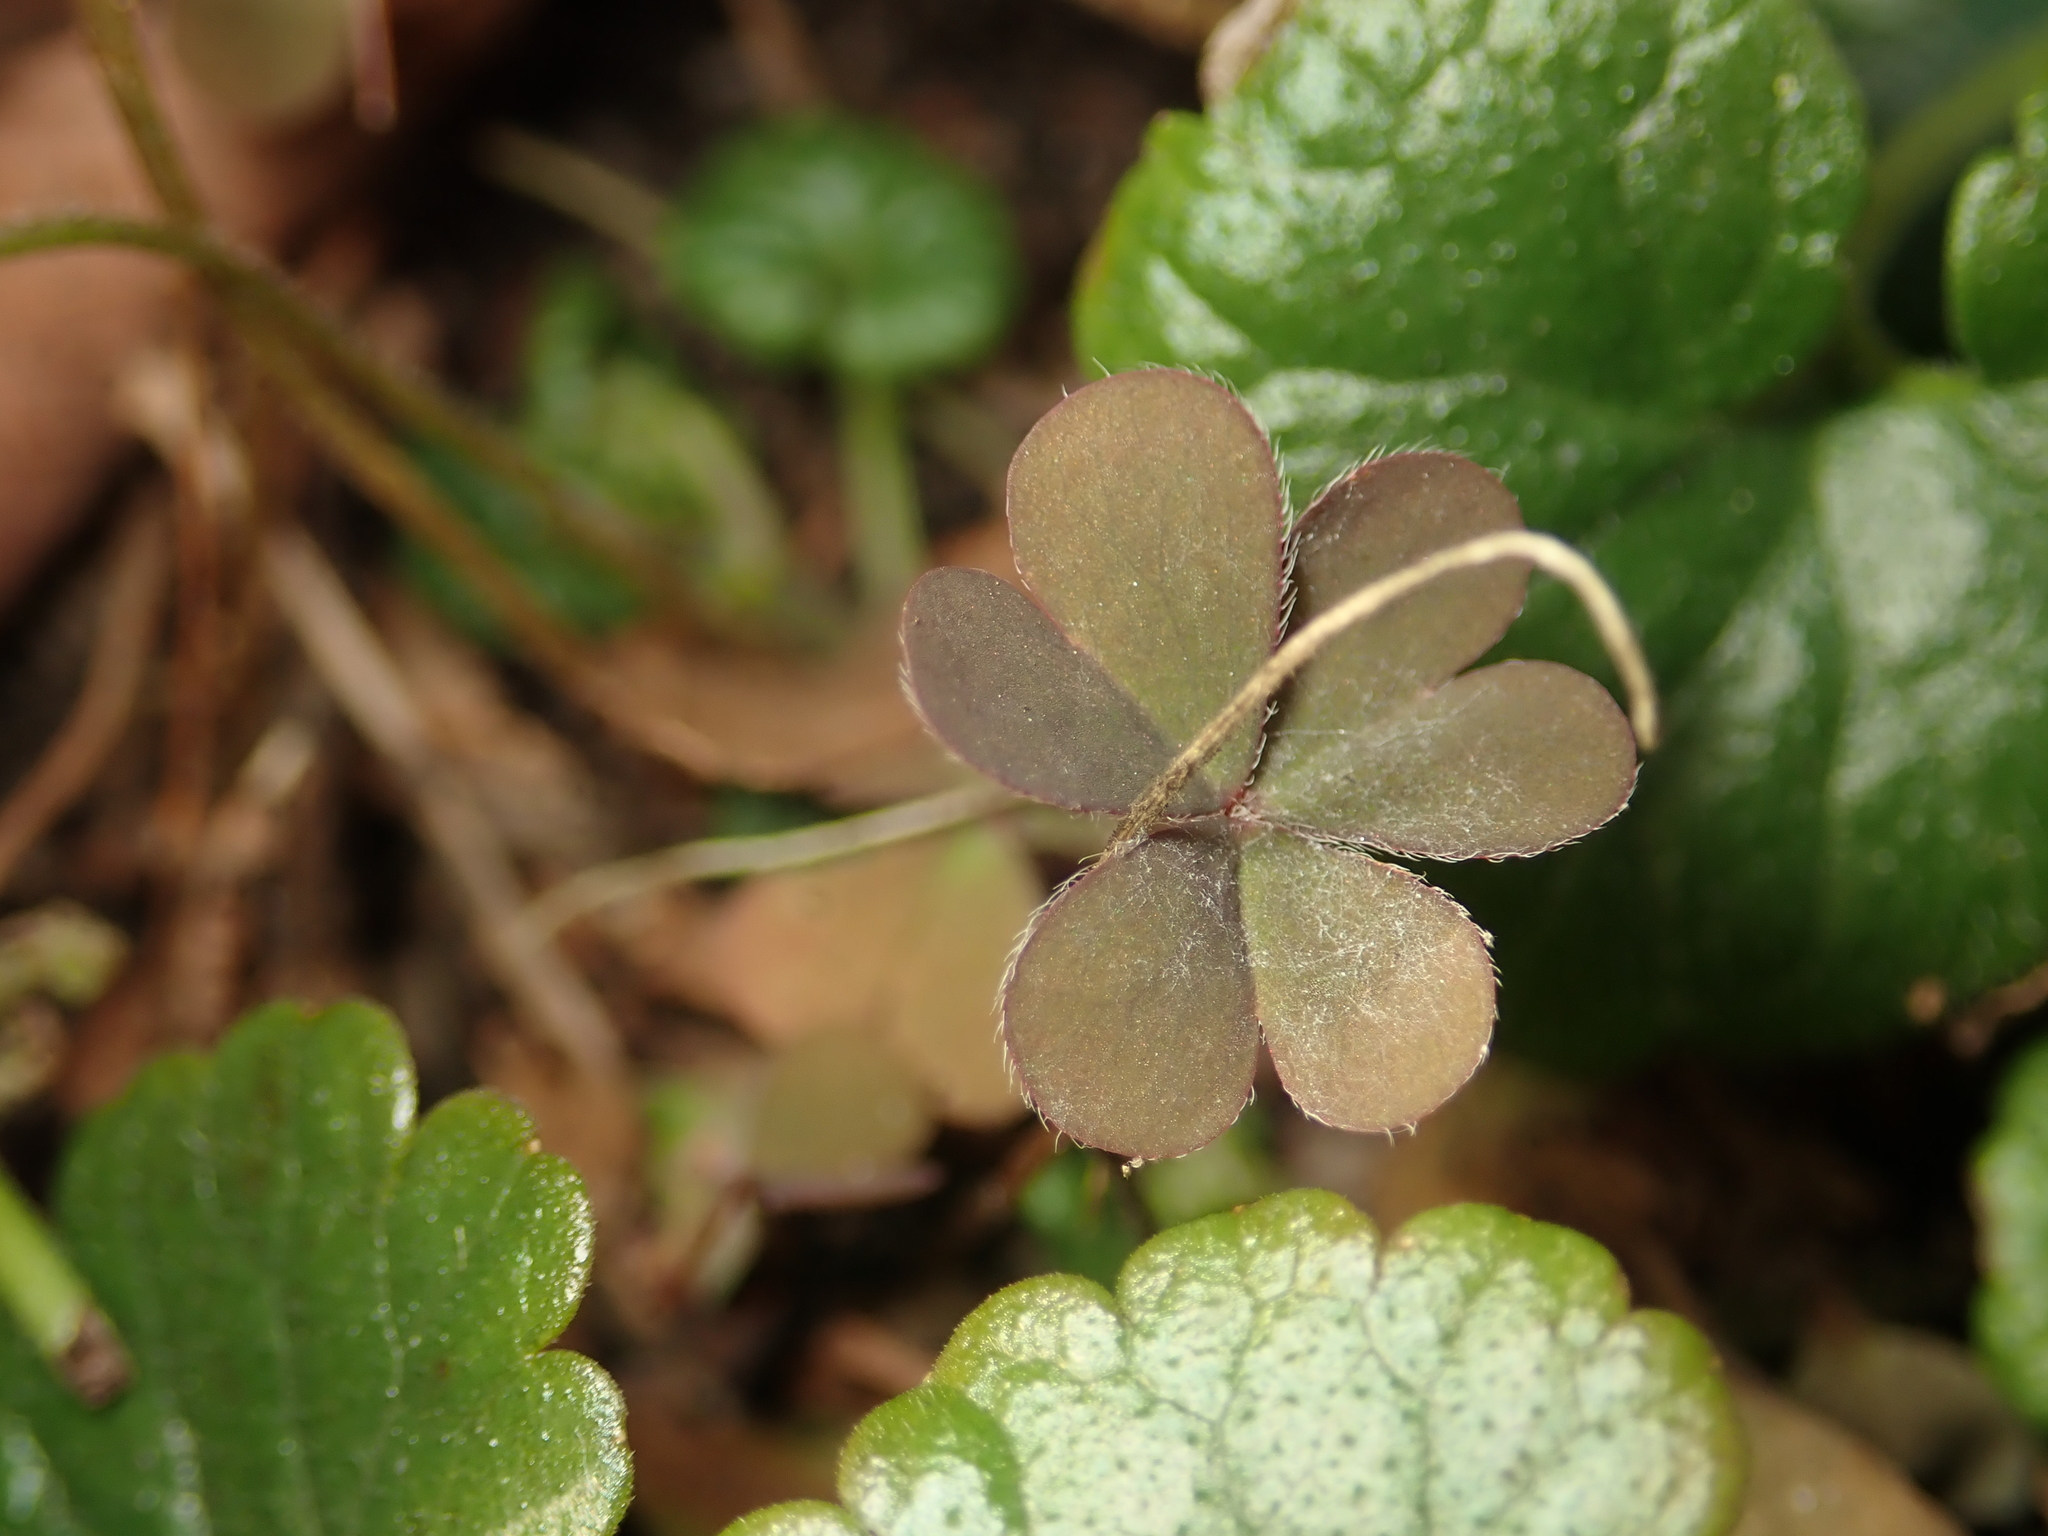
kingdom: Plantae
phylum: Tracheophyta
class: Magnoliopsida
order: Oxalidales
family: Oxalidaceae
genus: Oxalis
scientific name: Oxalis corniculata
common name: Procumbent yellow-sorrel
